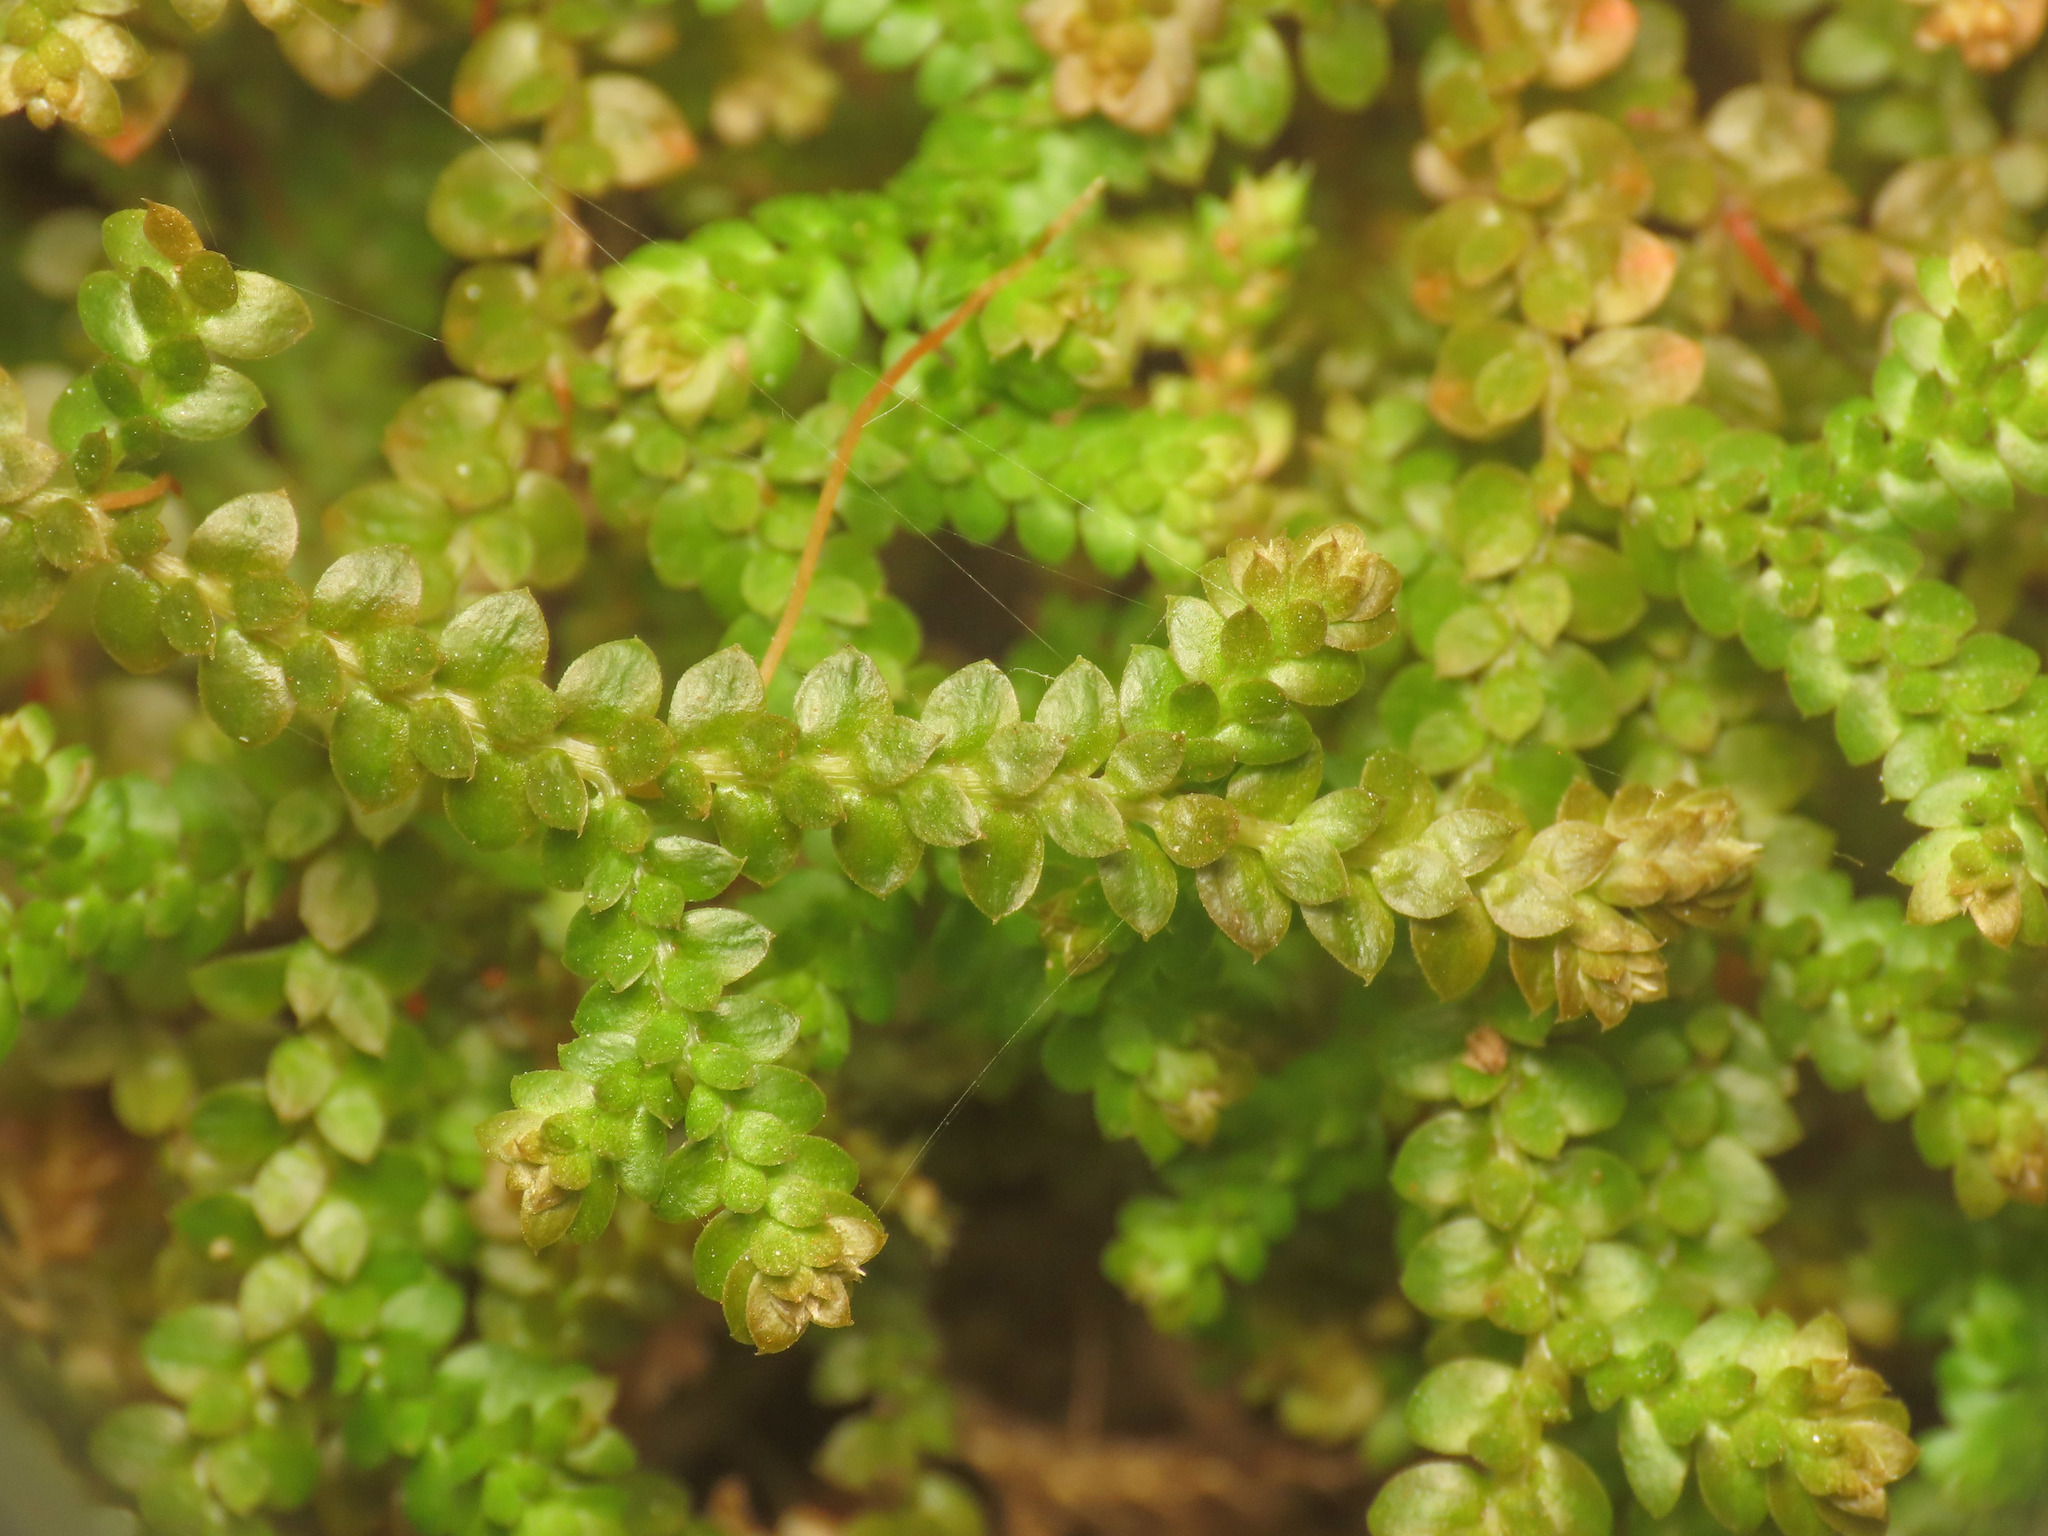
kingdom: Plantae
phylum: Tracheophyta
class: Lycopodiopsida
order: Selaginellales
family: Selaginellaceae
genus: Selaginella
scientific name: Selaginella denticulata
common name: Toothed-leaved clubmoss
